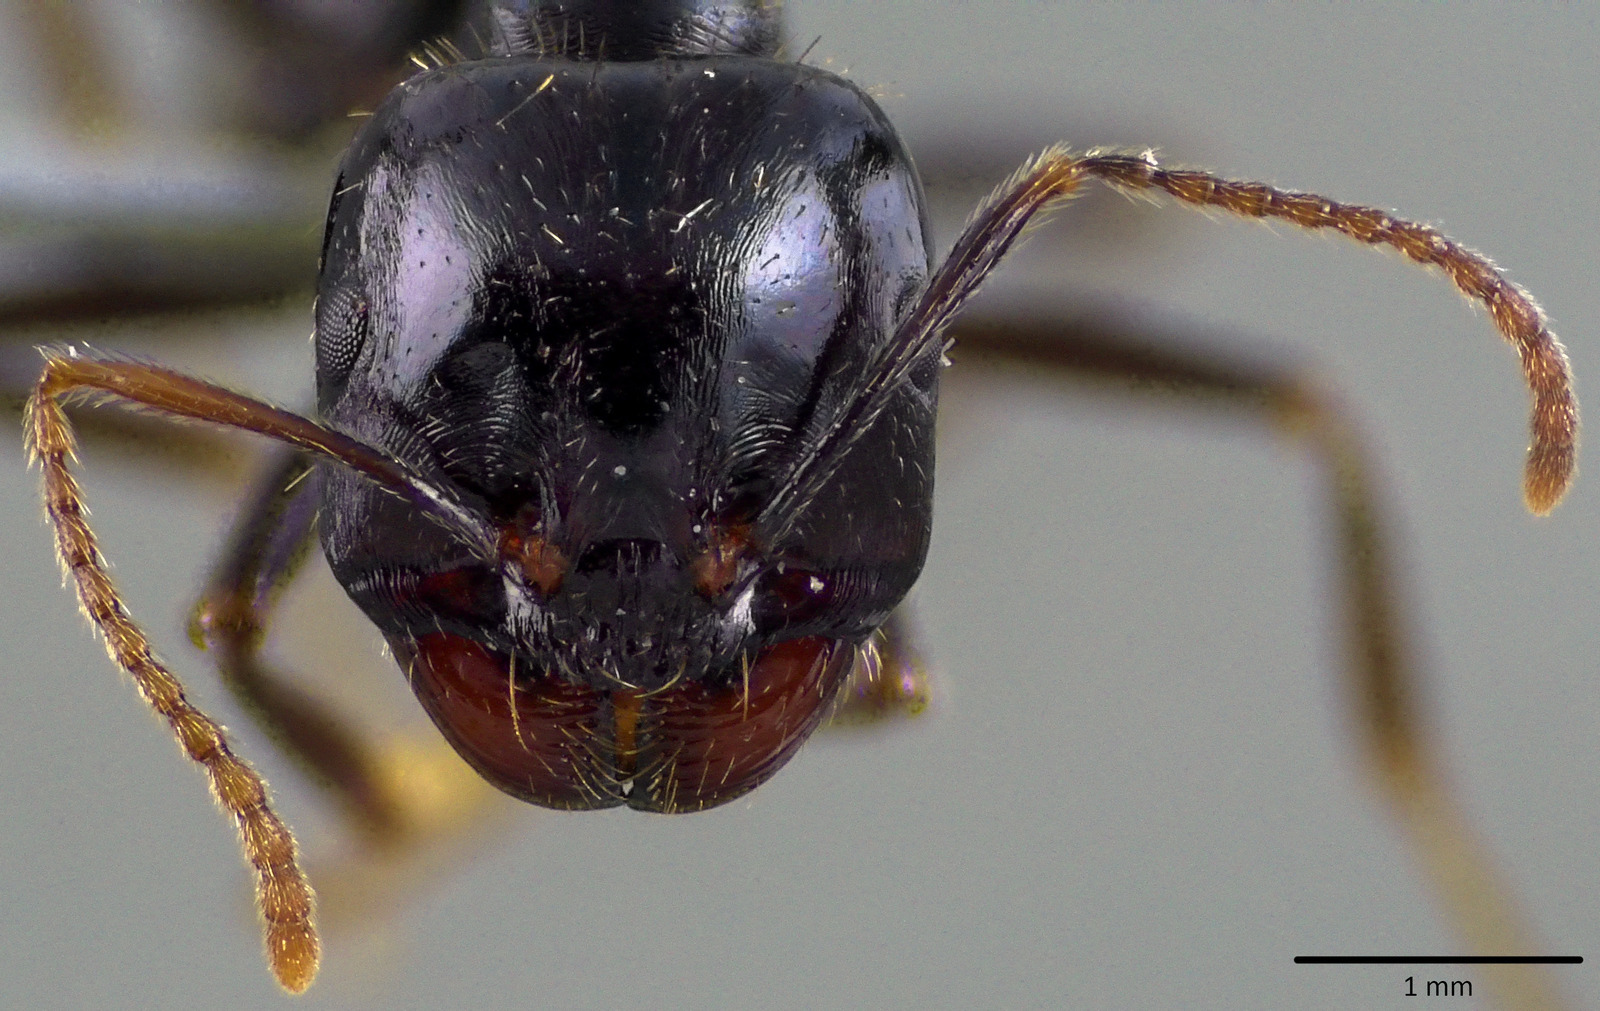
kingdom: Animalia
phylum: Arthropoda
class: Insecta
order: Hymenoptera
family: Formicidae
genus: Messor
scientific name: Messor capitatus
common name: European seed harvesting ant
